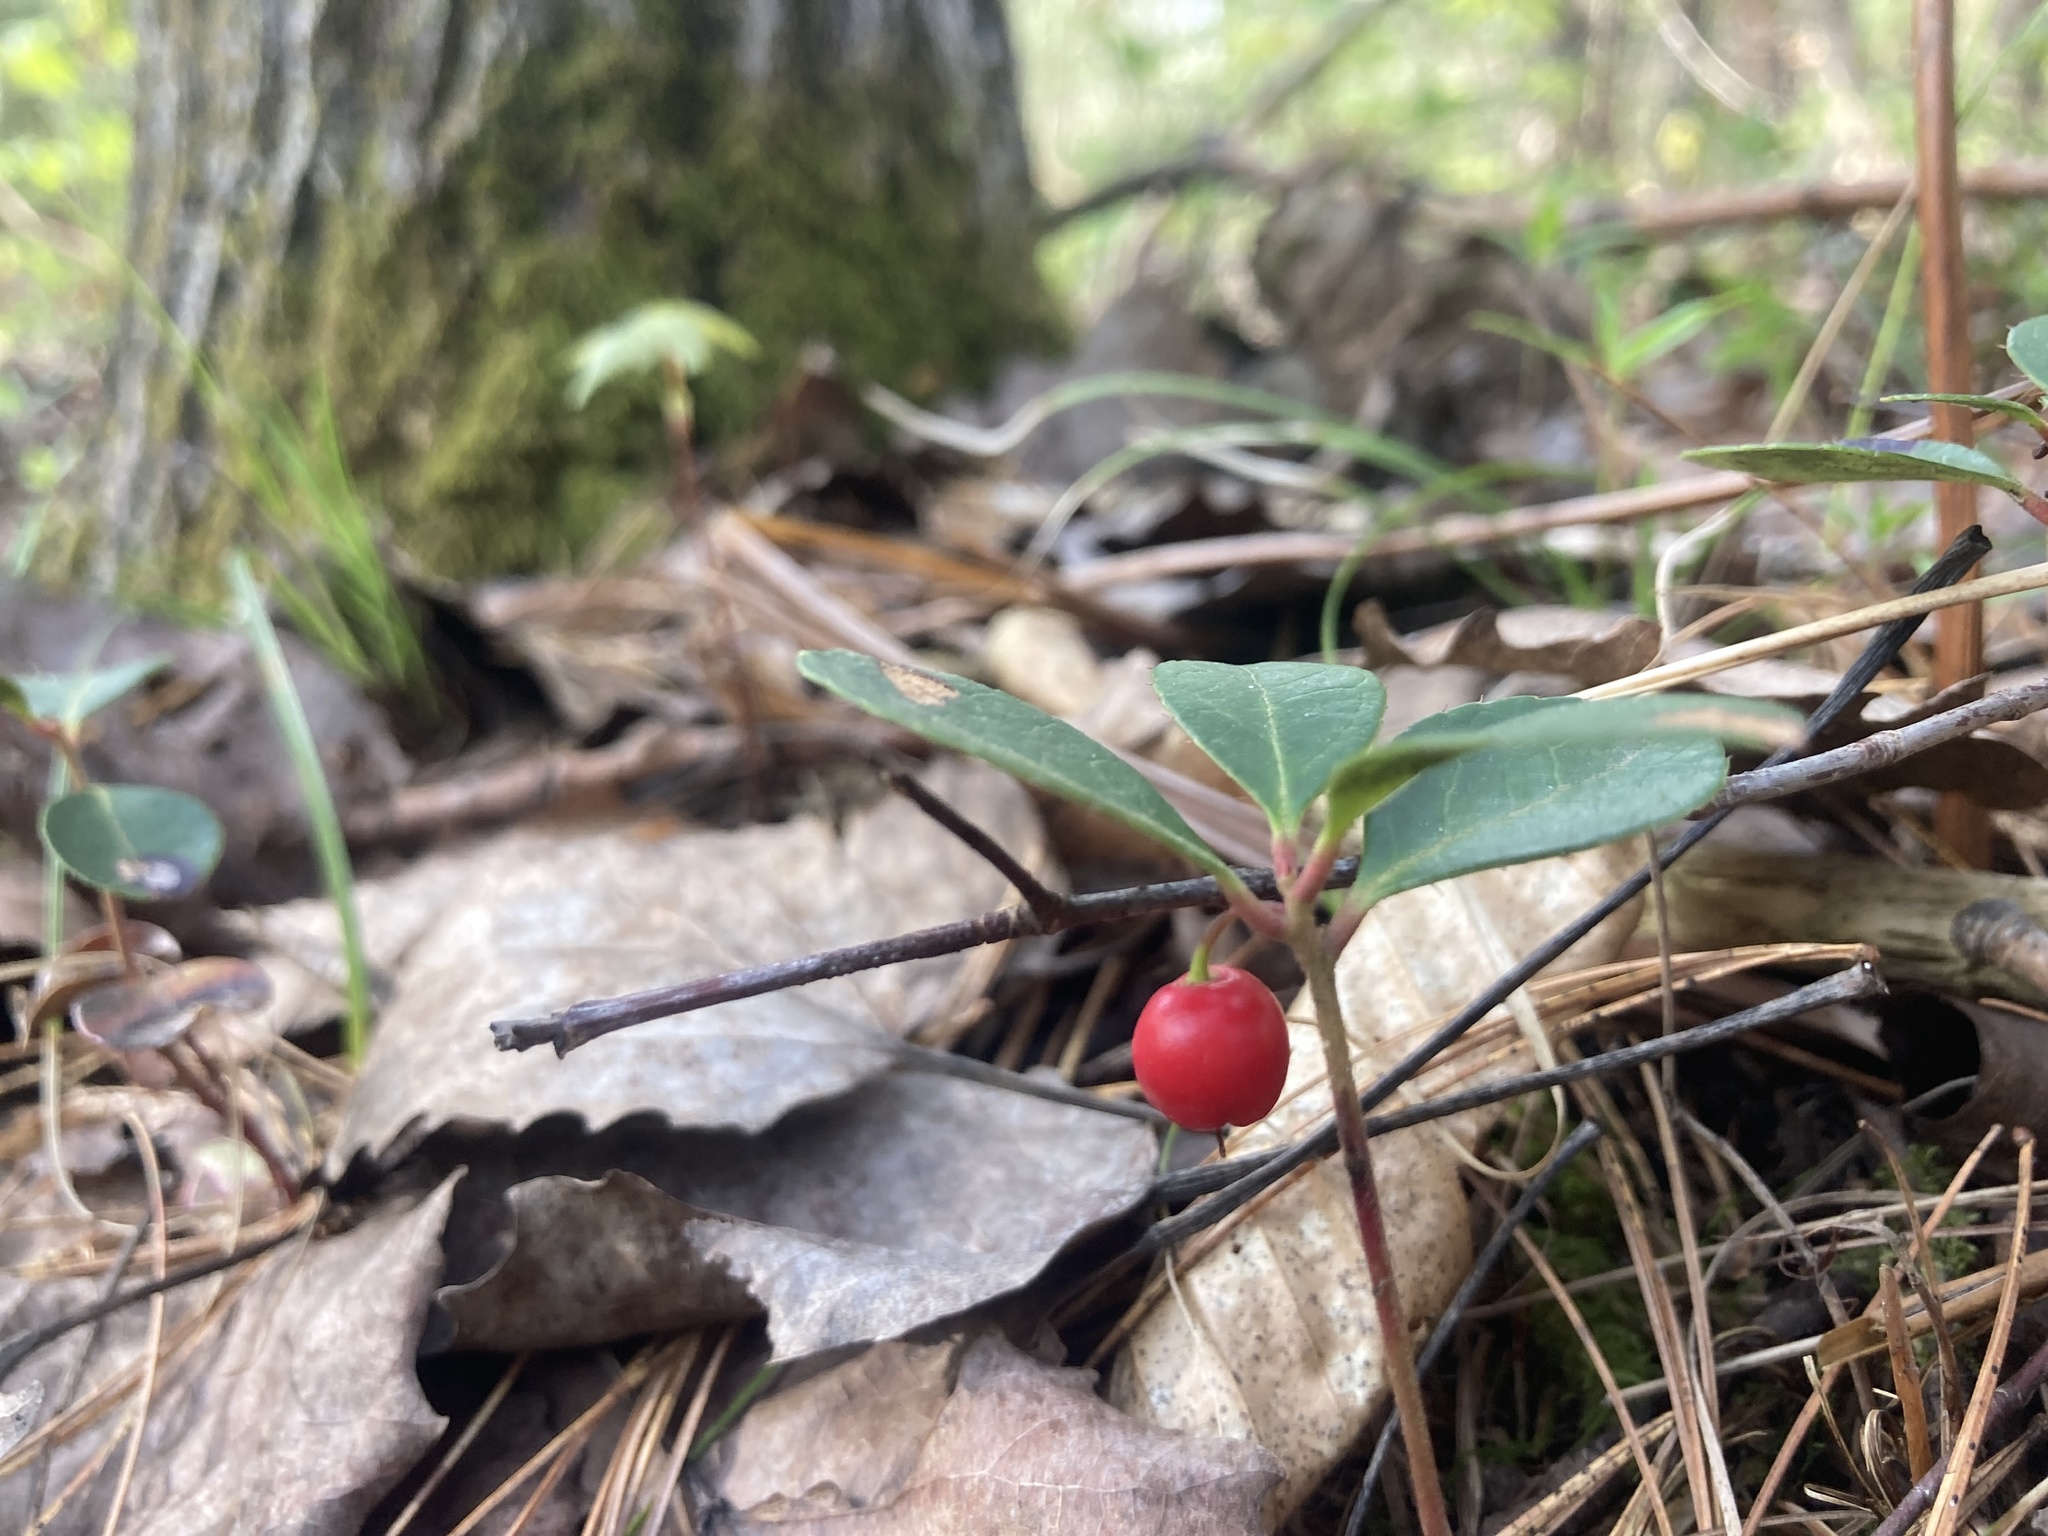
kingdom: Plantae
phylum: Tracheophyta
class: Magnoliopsida
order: Ericales
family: Ericaceae
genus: Gaultheria
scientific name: Gaultheria procumbens
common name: Checkerberry
